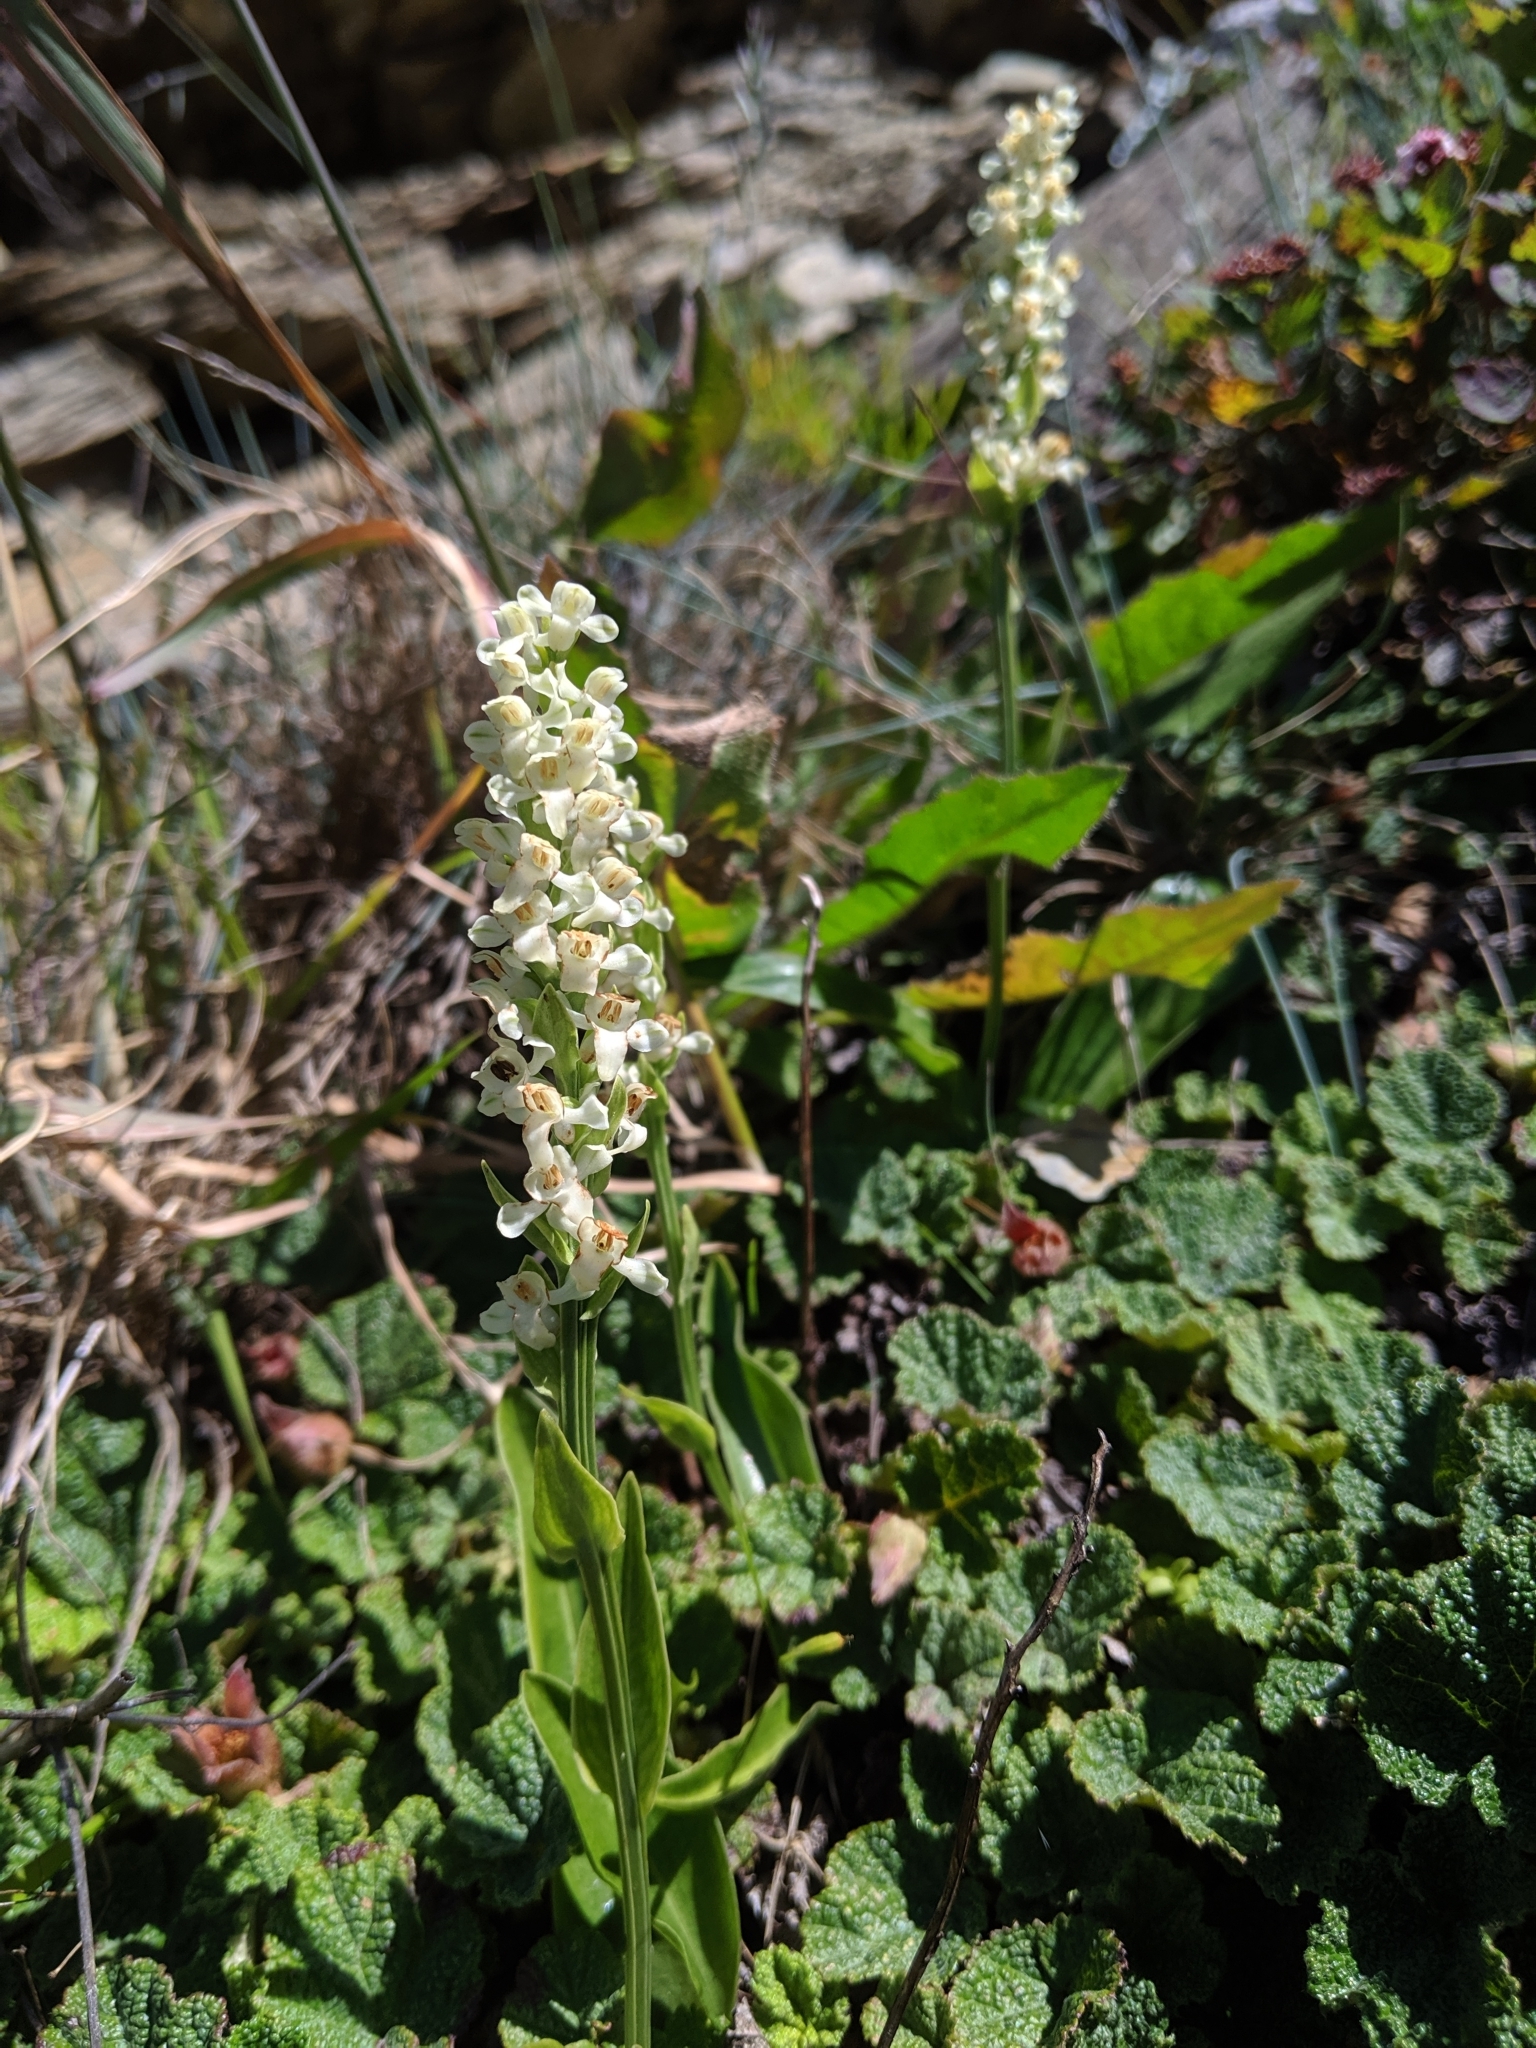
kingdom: Plantae
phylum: Tracheophyta
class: Liliopsida
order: Asparagales
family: Orchidaceae
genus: Platanthera
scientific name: Platanthera brevicalcarata
